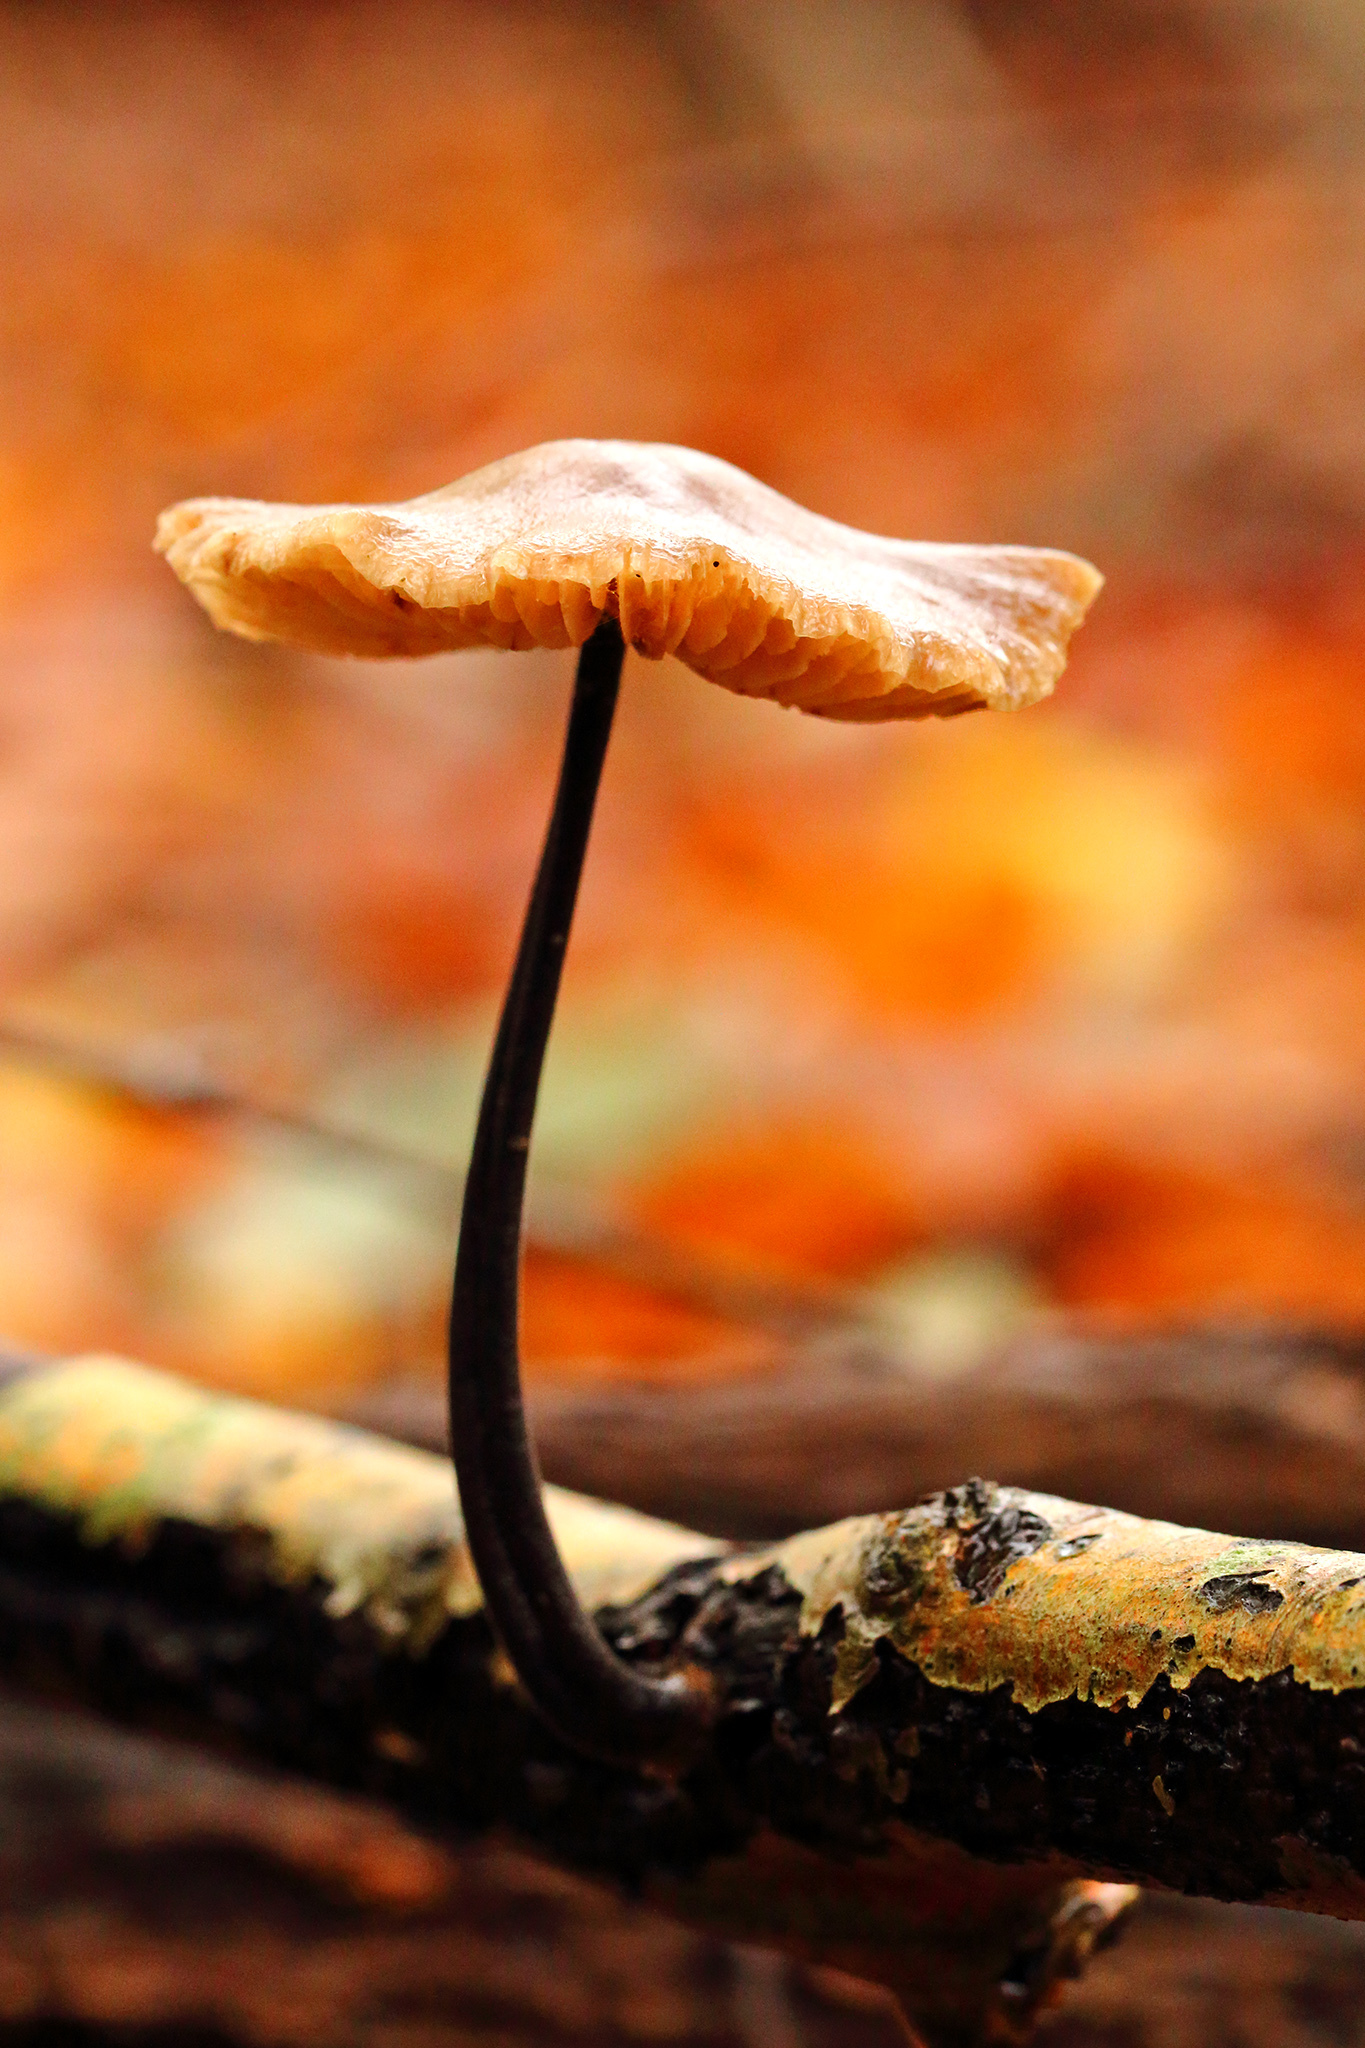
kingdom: Fungi
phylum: Basidiomycota
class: Agaricomycetes
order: Agaricales
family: Omphalotaceae
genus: Mycetinis
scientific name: Mycetinis alliaceus
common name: Garlic parachute
